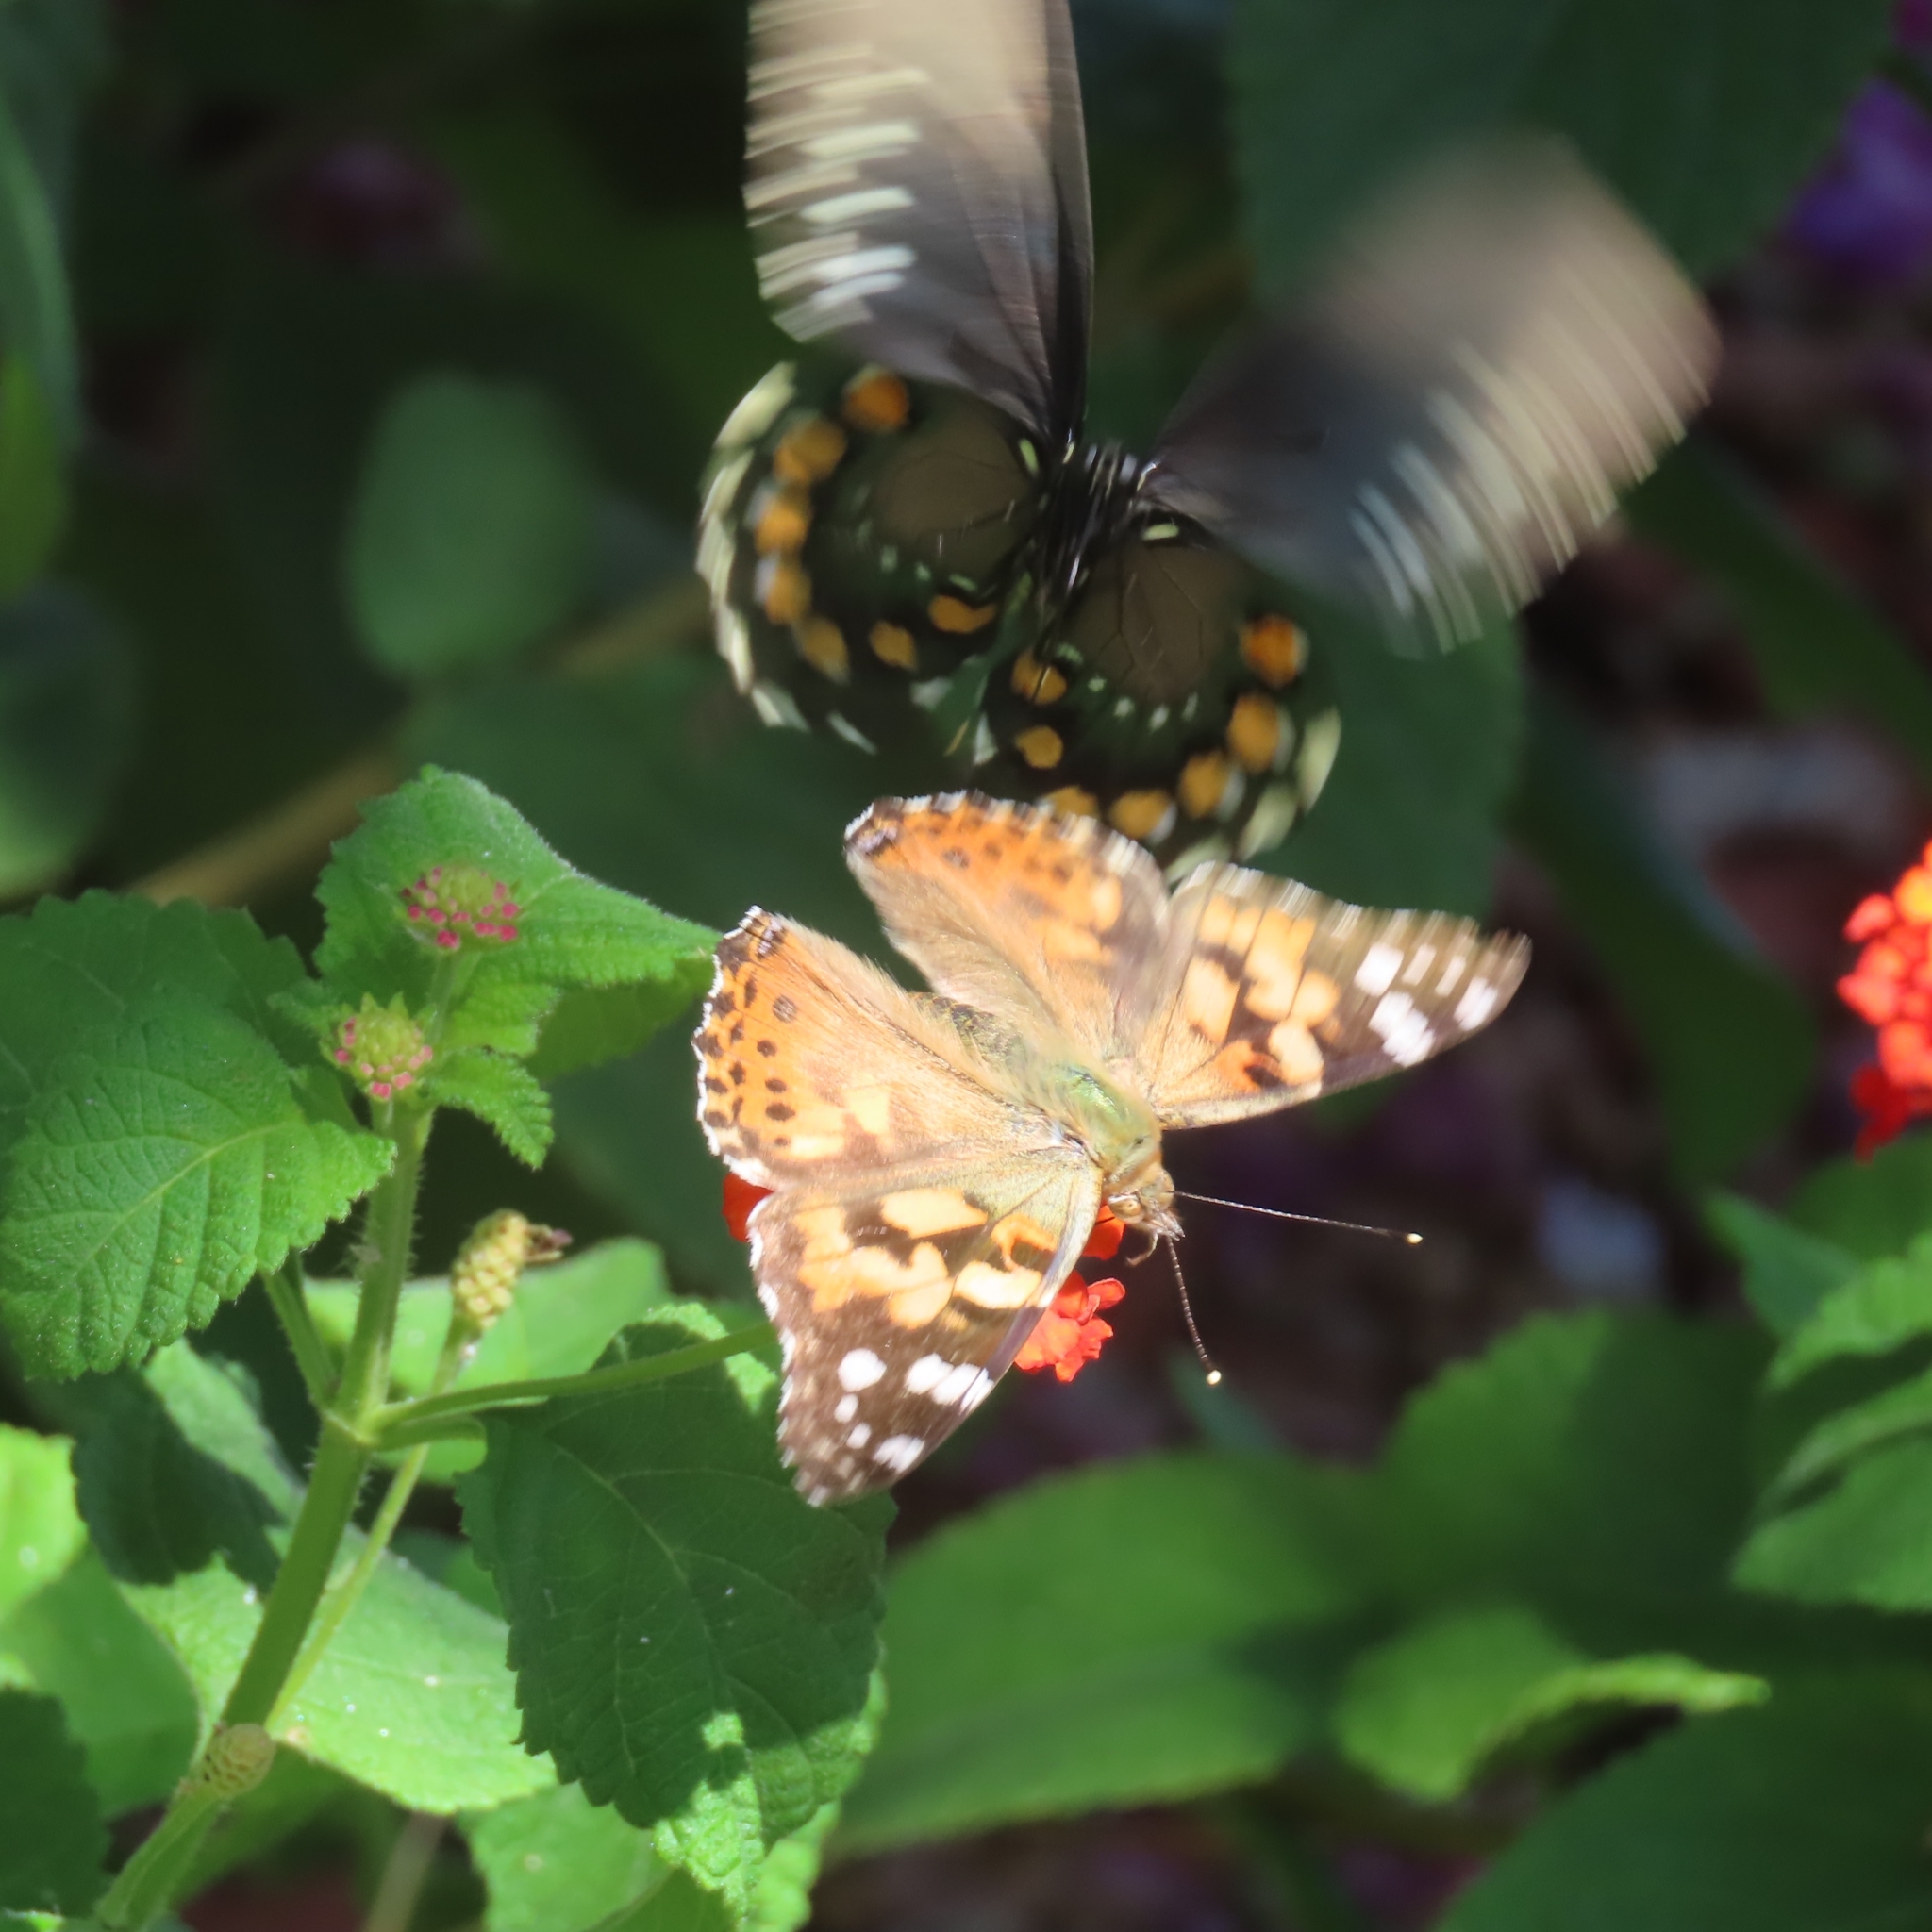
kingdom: Animalia
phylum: Arthropoda
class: Insecta
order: Lepidoptera
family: Nymphalidae
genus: Vanessa
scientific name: Vanessa cardui
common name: Painted lady
